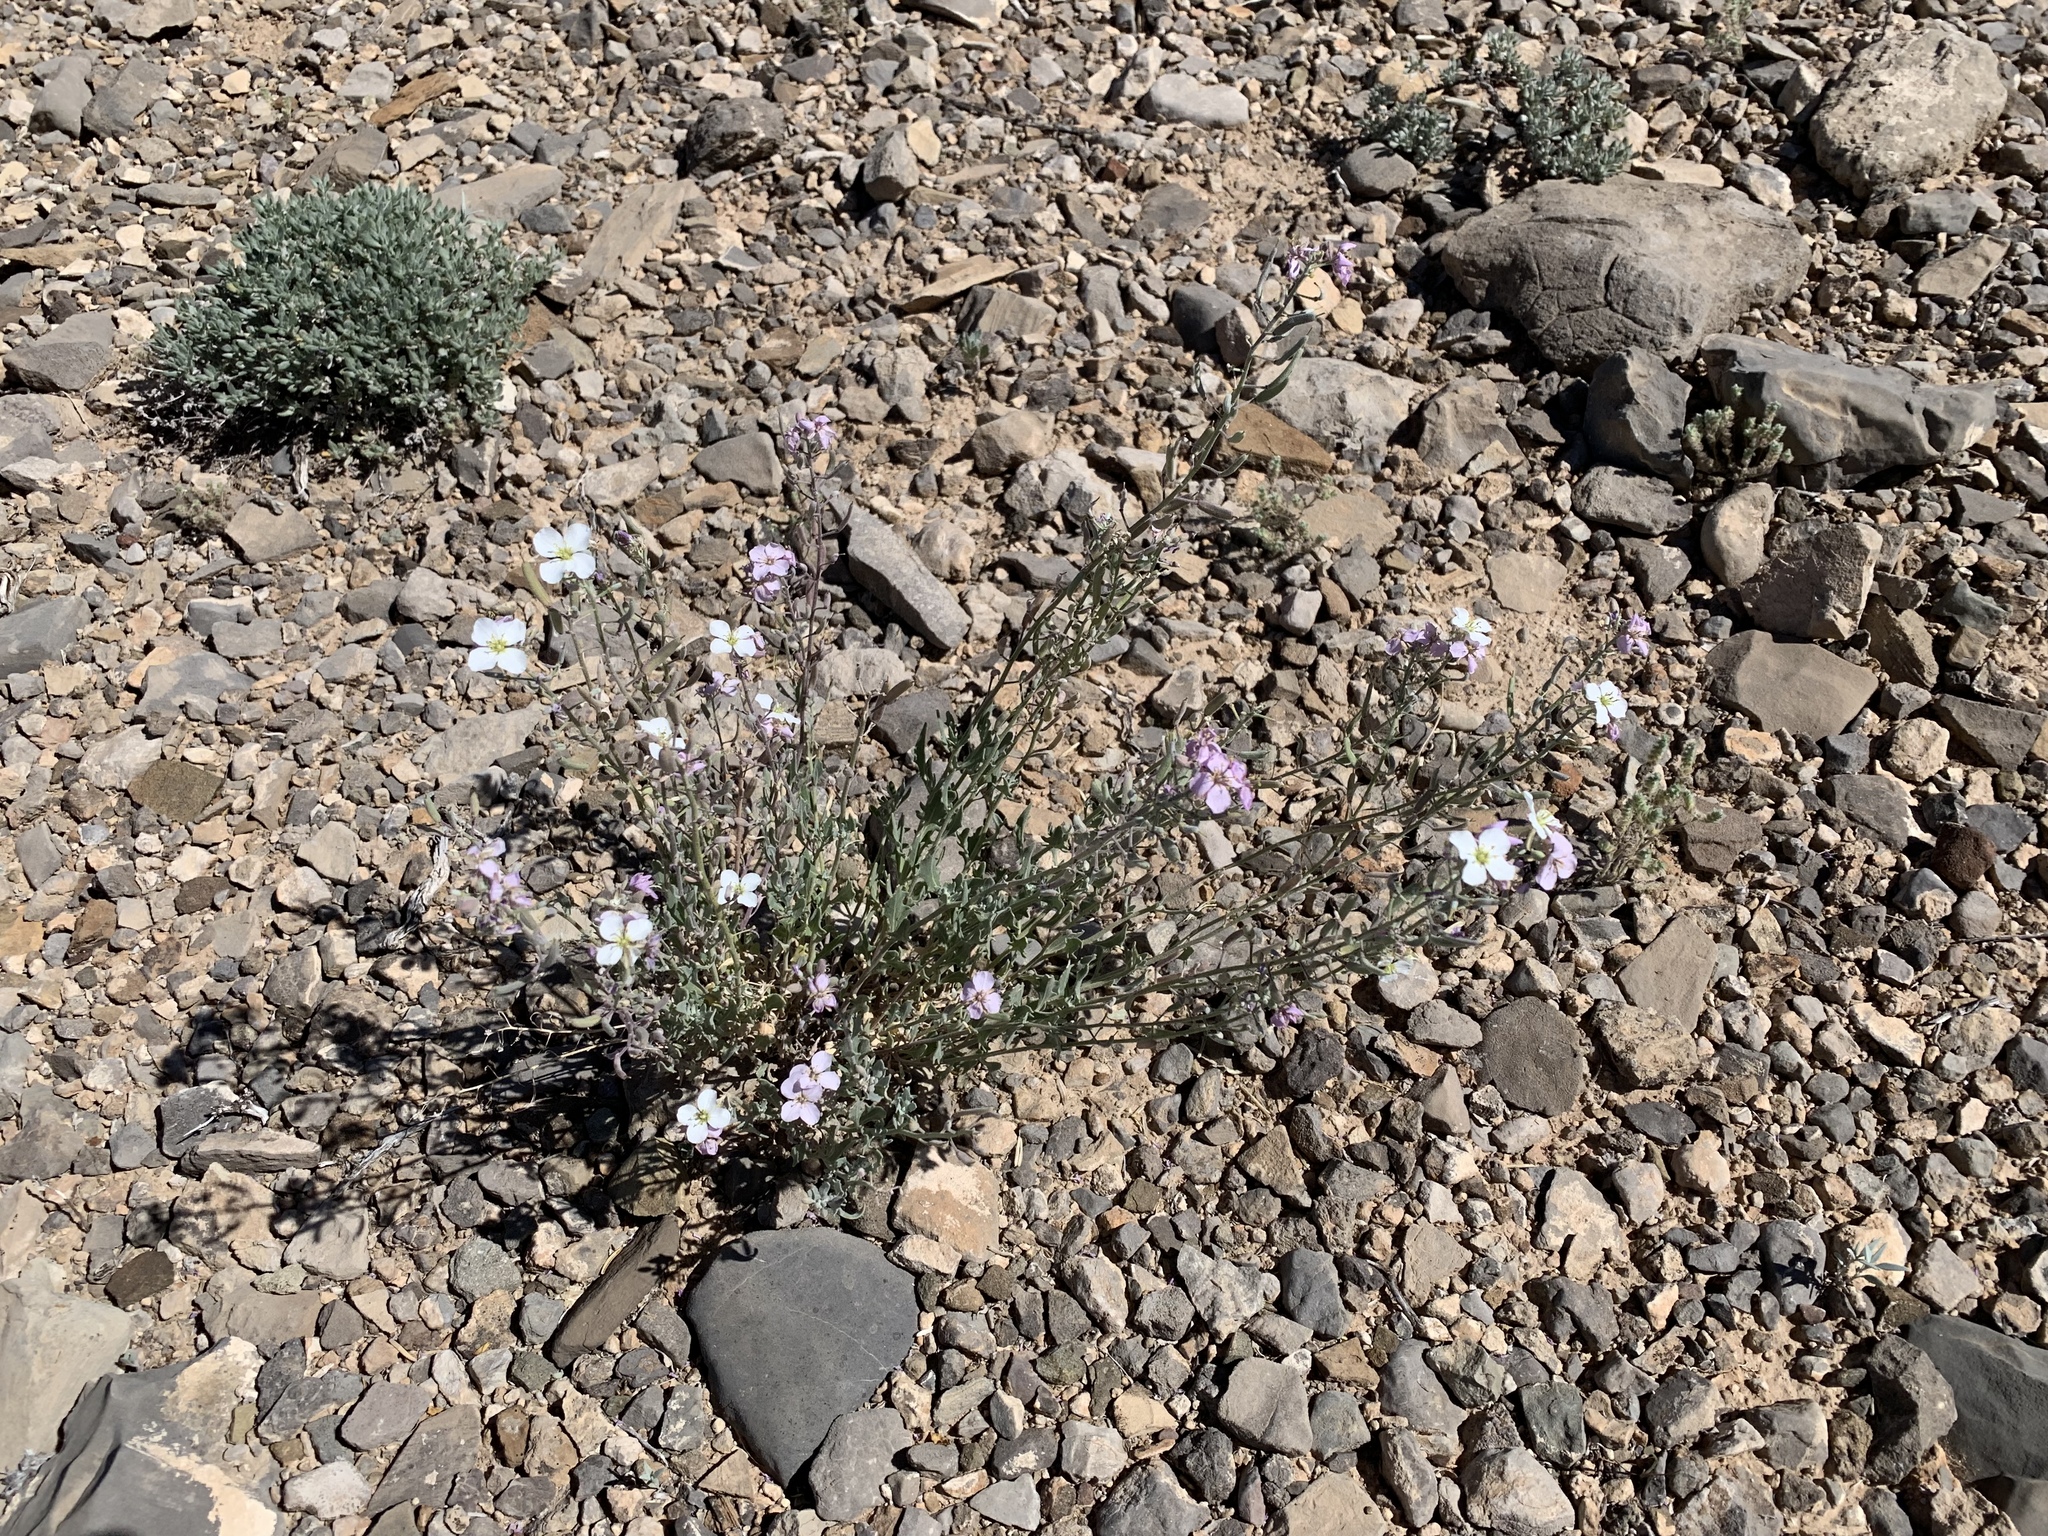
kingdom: Plantae
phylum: Tracheophyta
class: Magnoliopsida
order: Brassicales
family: Brassicaceae
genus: Nerisyrenia
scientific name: Nerisyrenia camporum
